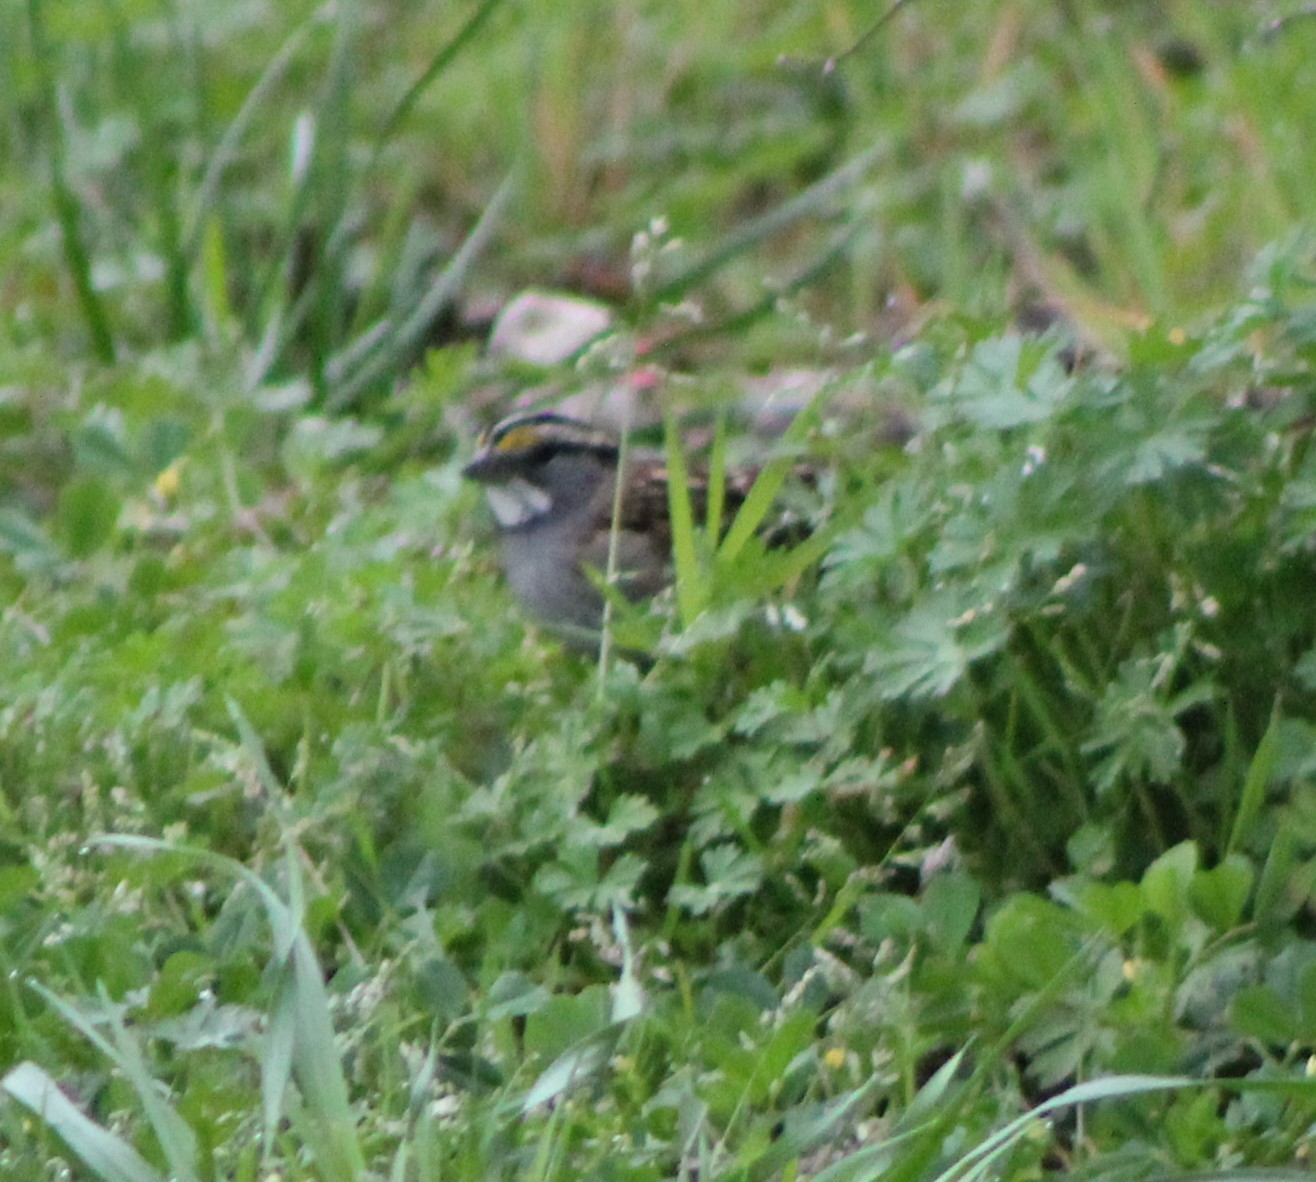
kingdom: Animalia
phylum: Chordata
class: Aves
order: Passeriformes
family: Passerellidae
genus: Zonotrichia
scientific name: Zonotrichia albicollis
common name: White-throated sparrow
